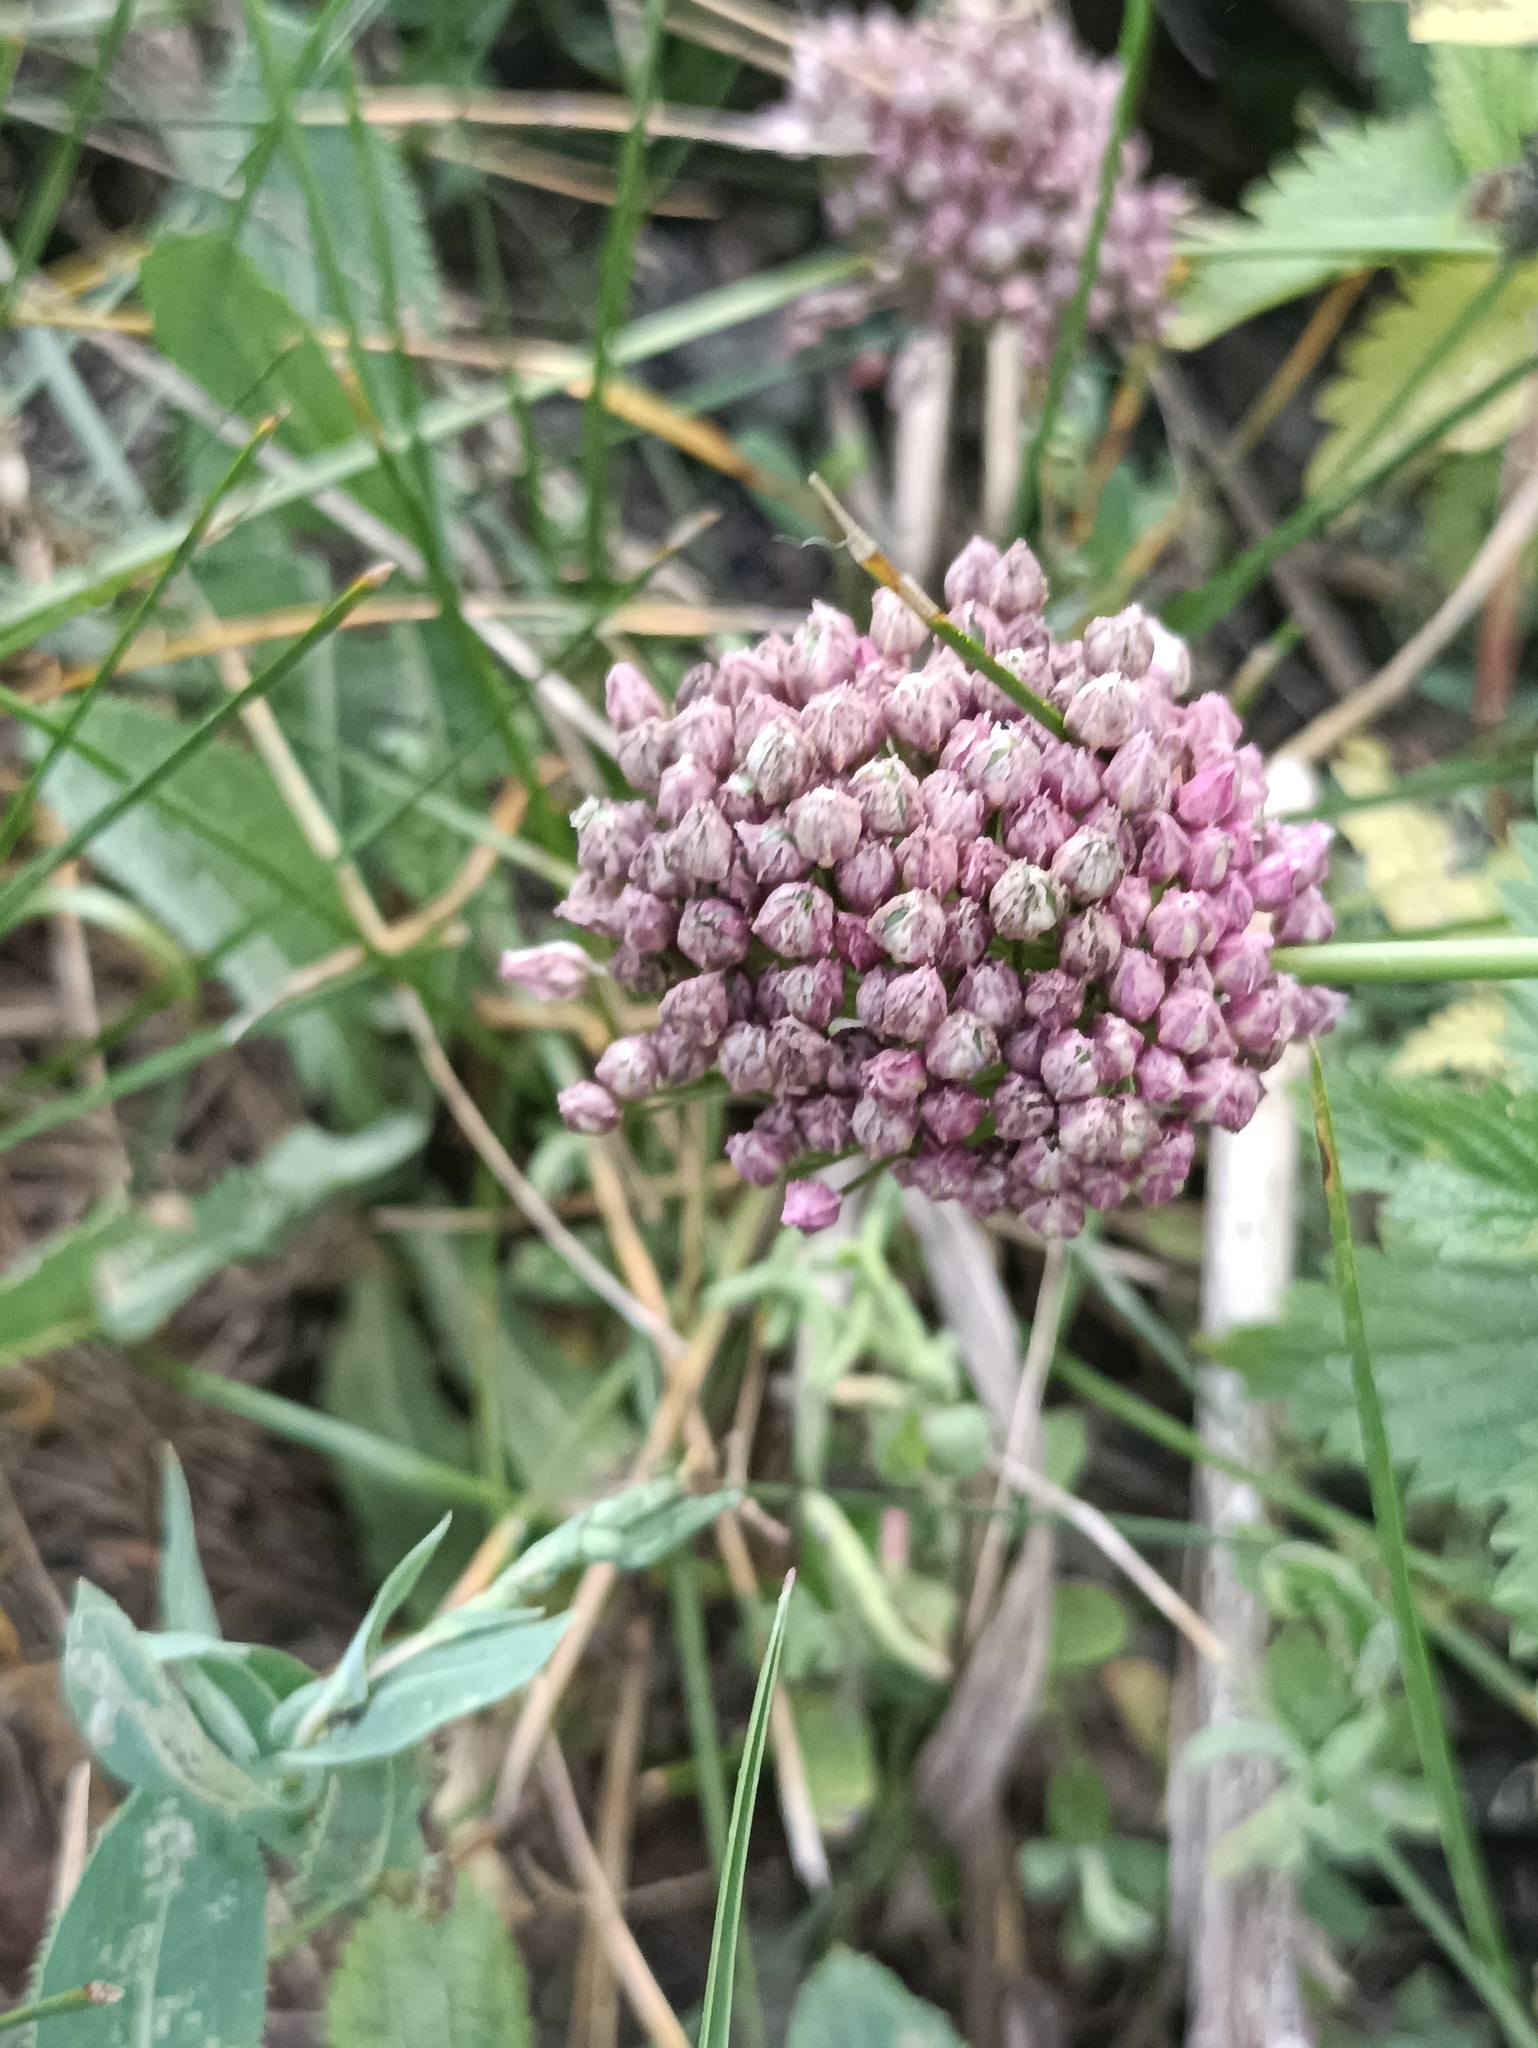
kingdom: Plantae
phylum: Tracheophyta
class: Liliopsida
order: Asparagales
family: Amaryllidaceae
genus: Allium
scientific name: Allium rotundum
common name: Sand leek
